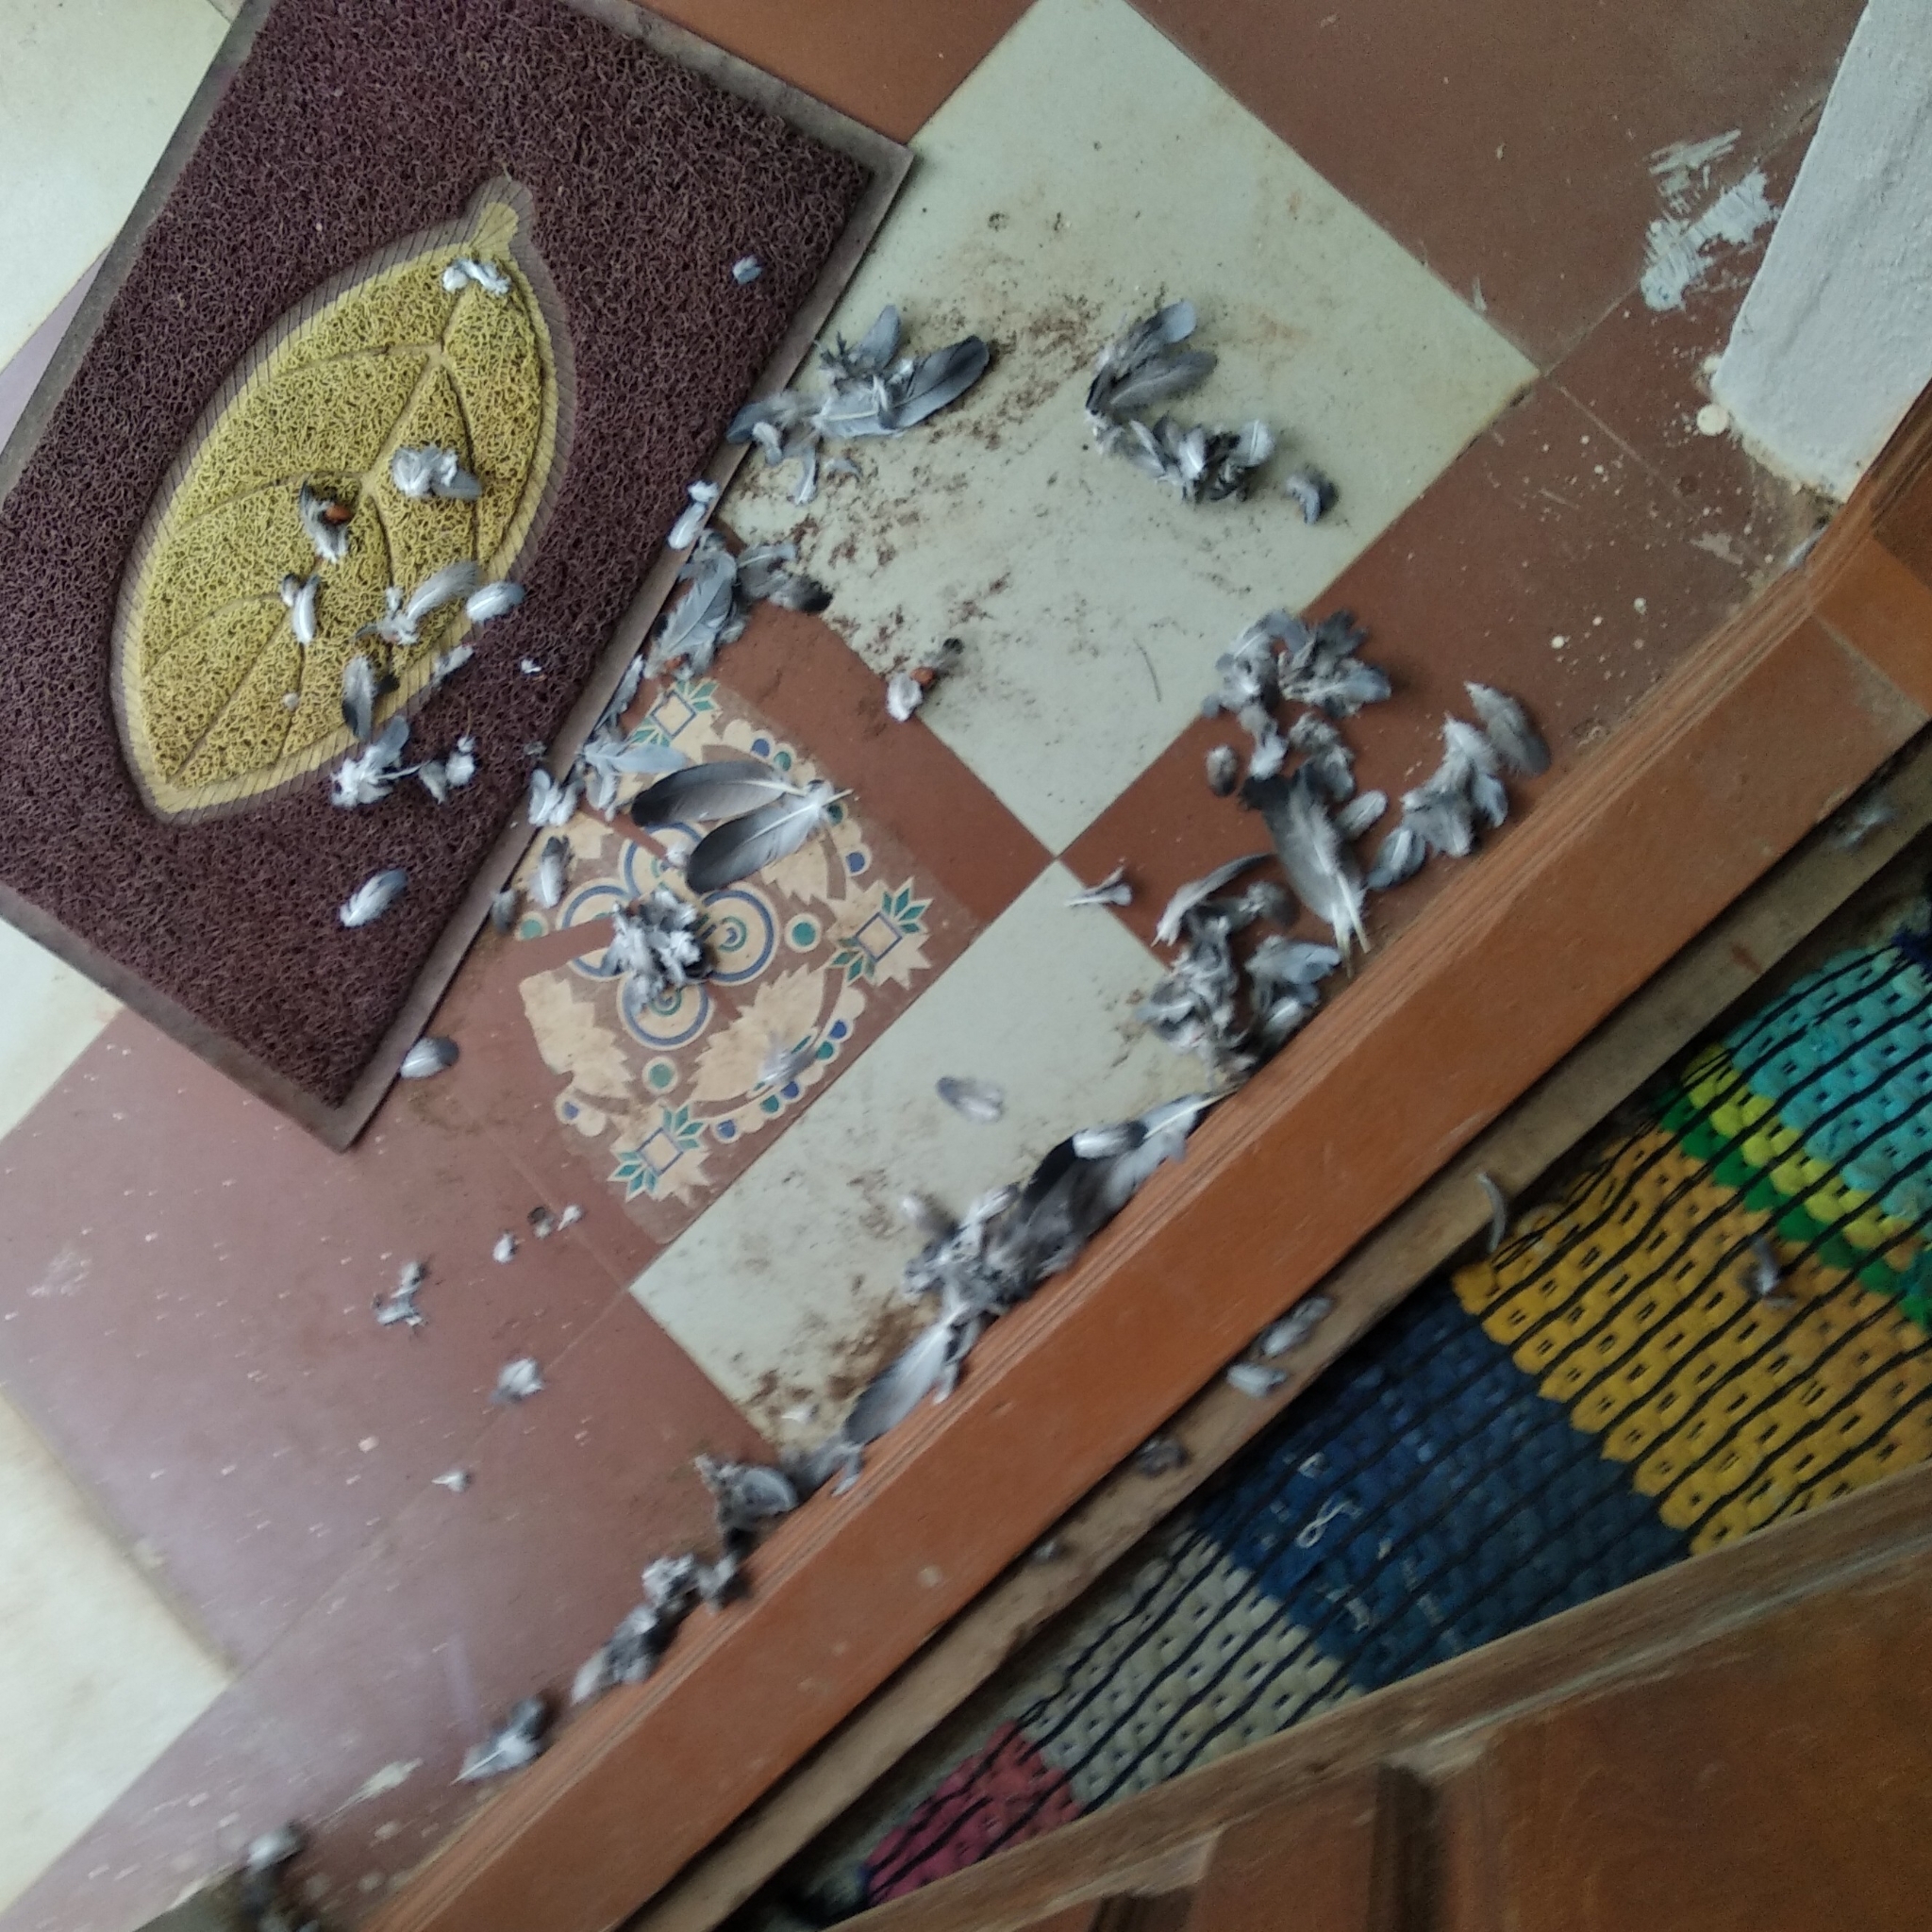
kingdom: Animalia
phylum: Chordata
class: Aves
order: Columbiformes
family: Columbidae
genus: Columba
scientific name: Columba livia
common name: Rock pigeon
